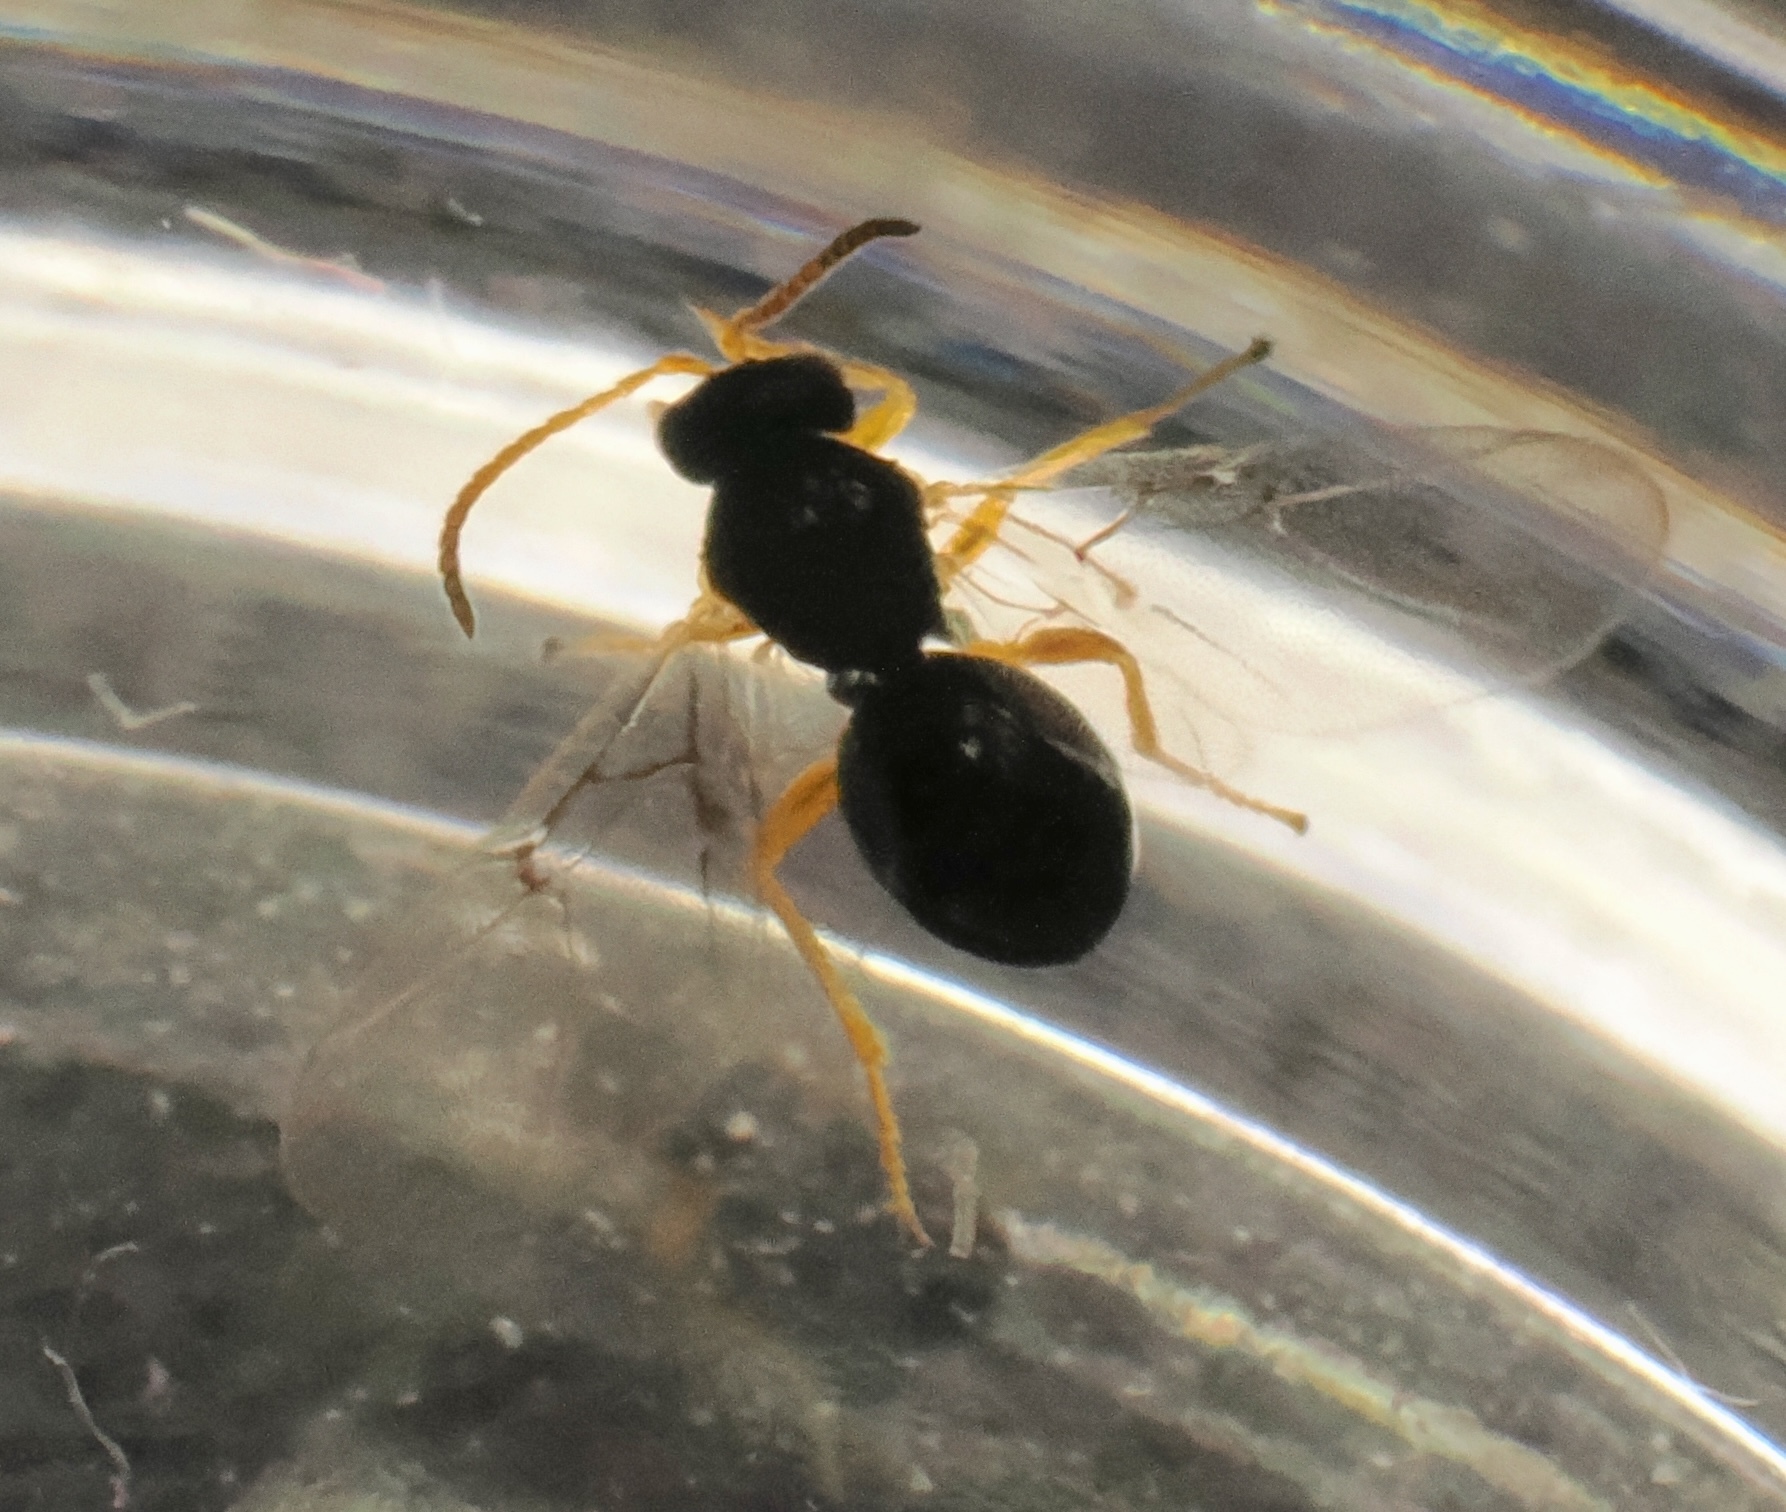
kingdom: Animalia
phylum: Arthropoda
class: Insecta
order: Hymenoptera
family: Cynipidae
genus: Dryocosmus
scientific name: Dryocosmus
